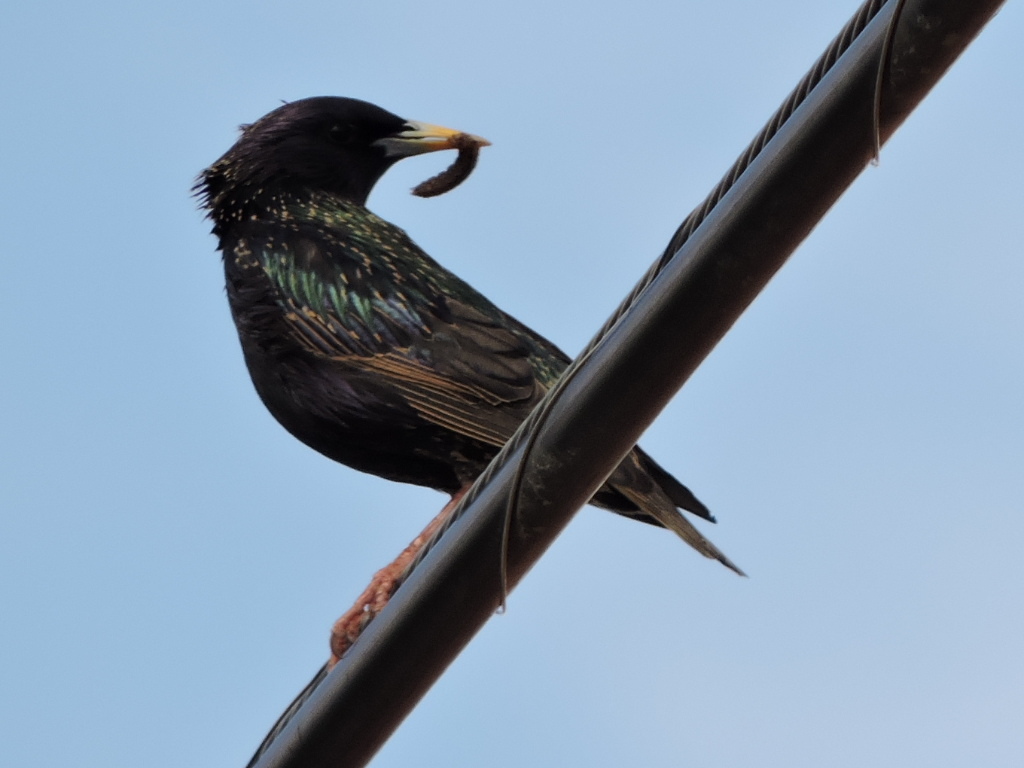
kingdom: Animalia
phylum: Chordata
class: Aves
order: Passeriformes
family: Sturnidae
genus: Sturnus
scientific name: Sturnus vulgaris
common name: Common starling
